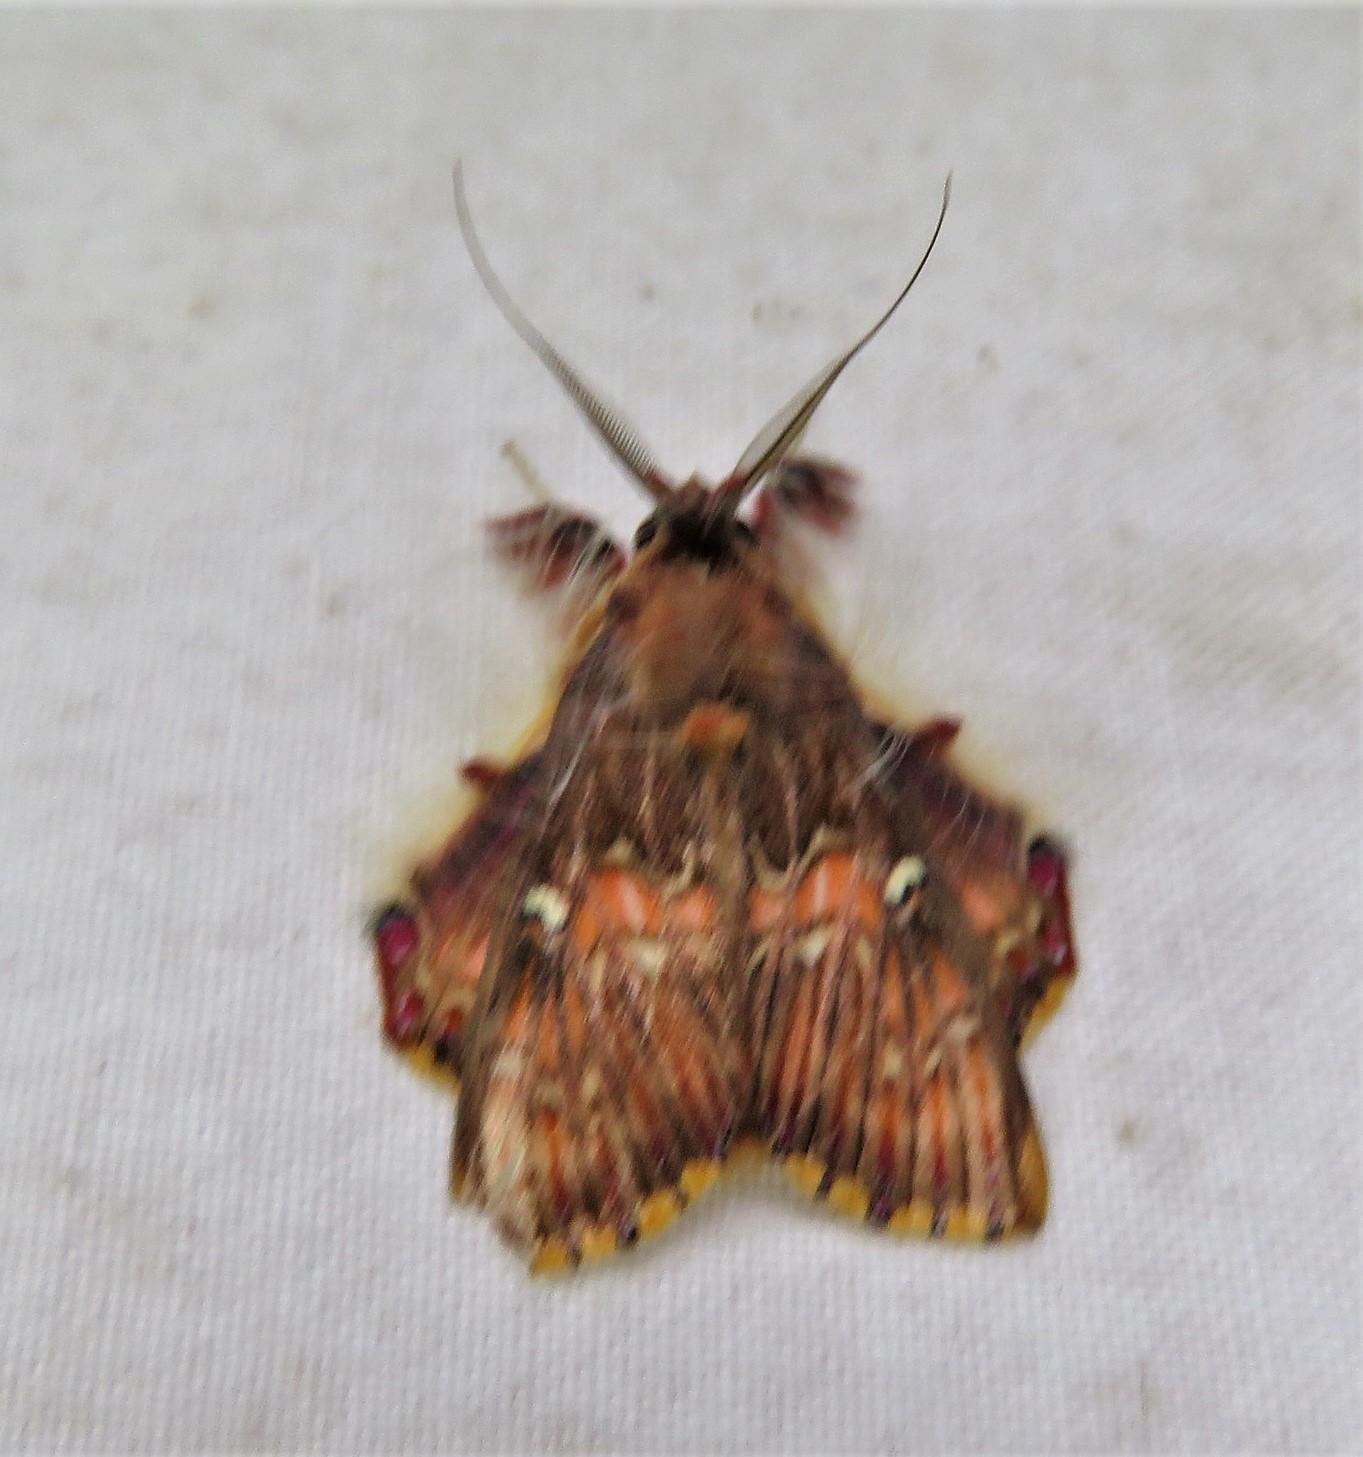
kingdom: Animalia
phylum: Arthropoda
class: Insecta
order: Lepidoptera
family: Erebidae
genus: Sosxetra
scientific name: Sosxetra grata
